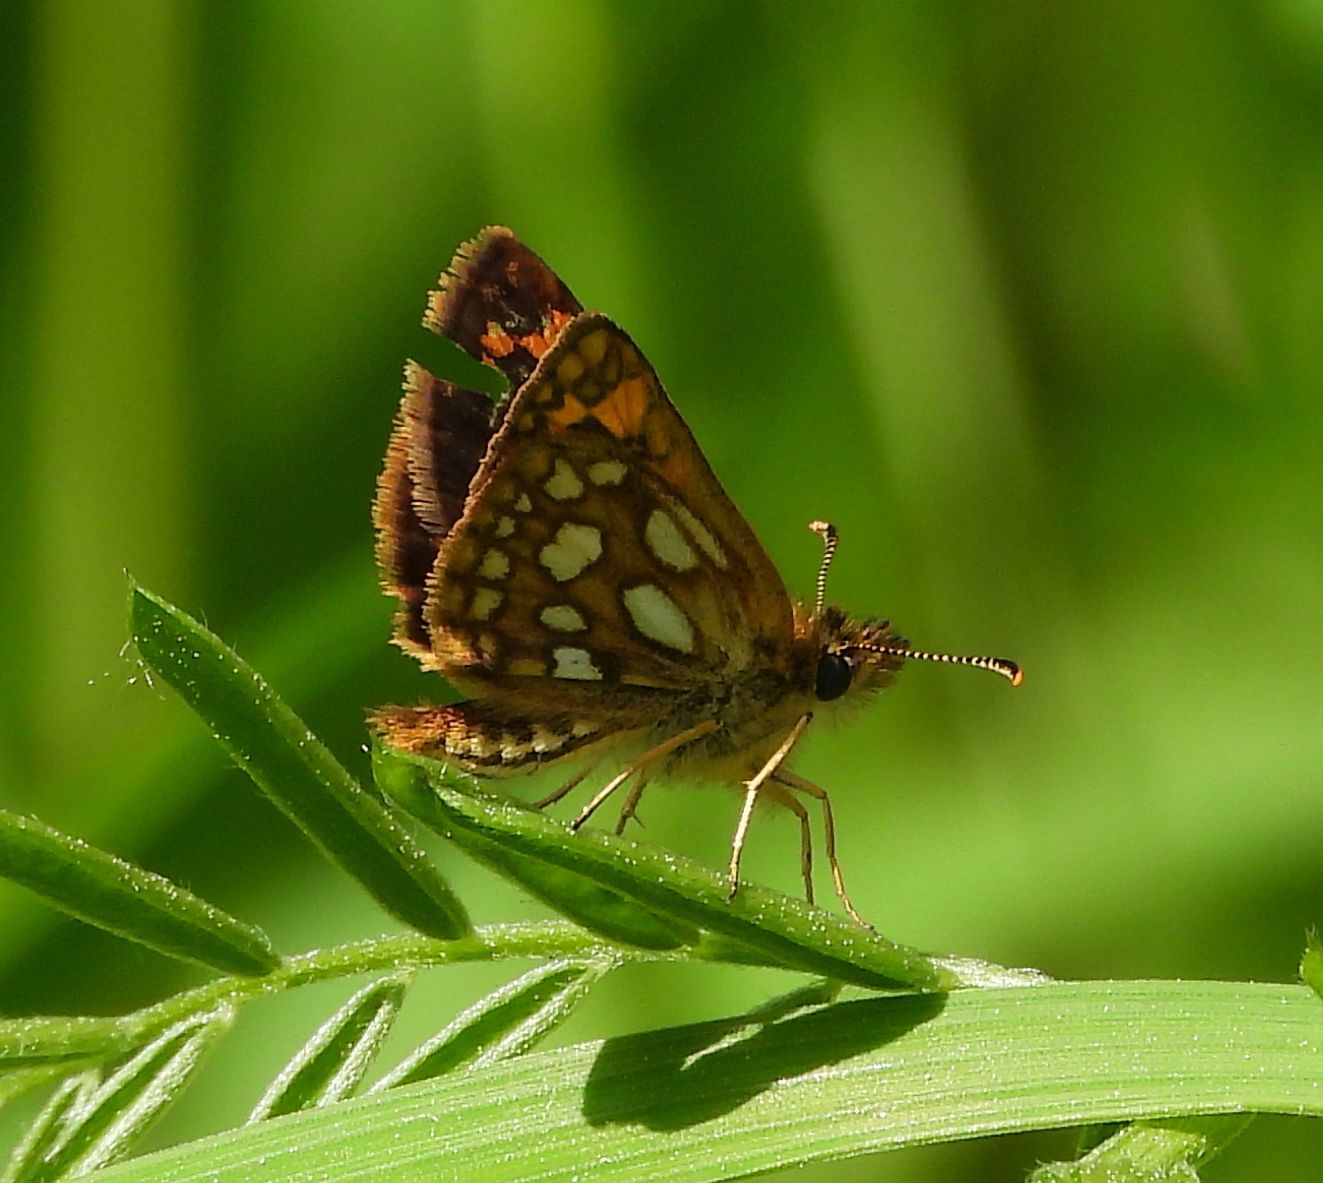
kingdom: Animalia
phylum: Arthropoda
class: Insecta
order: Lepidoptera
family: Hesperiidae
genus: Carterocephalus
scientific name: Carterocephalus mandan
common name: Arctic skipperling
